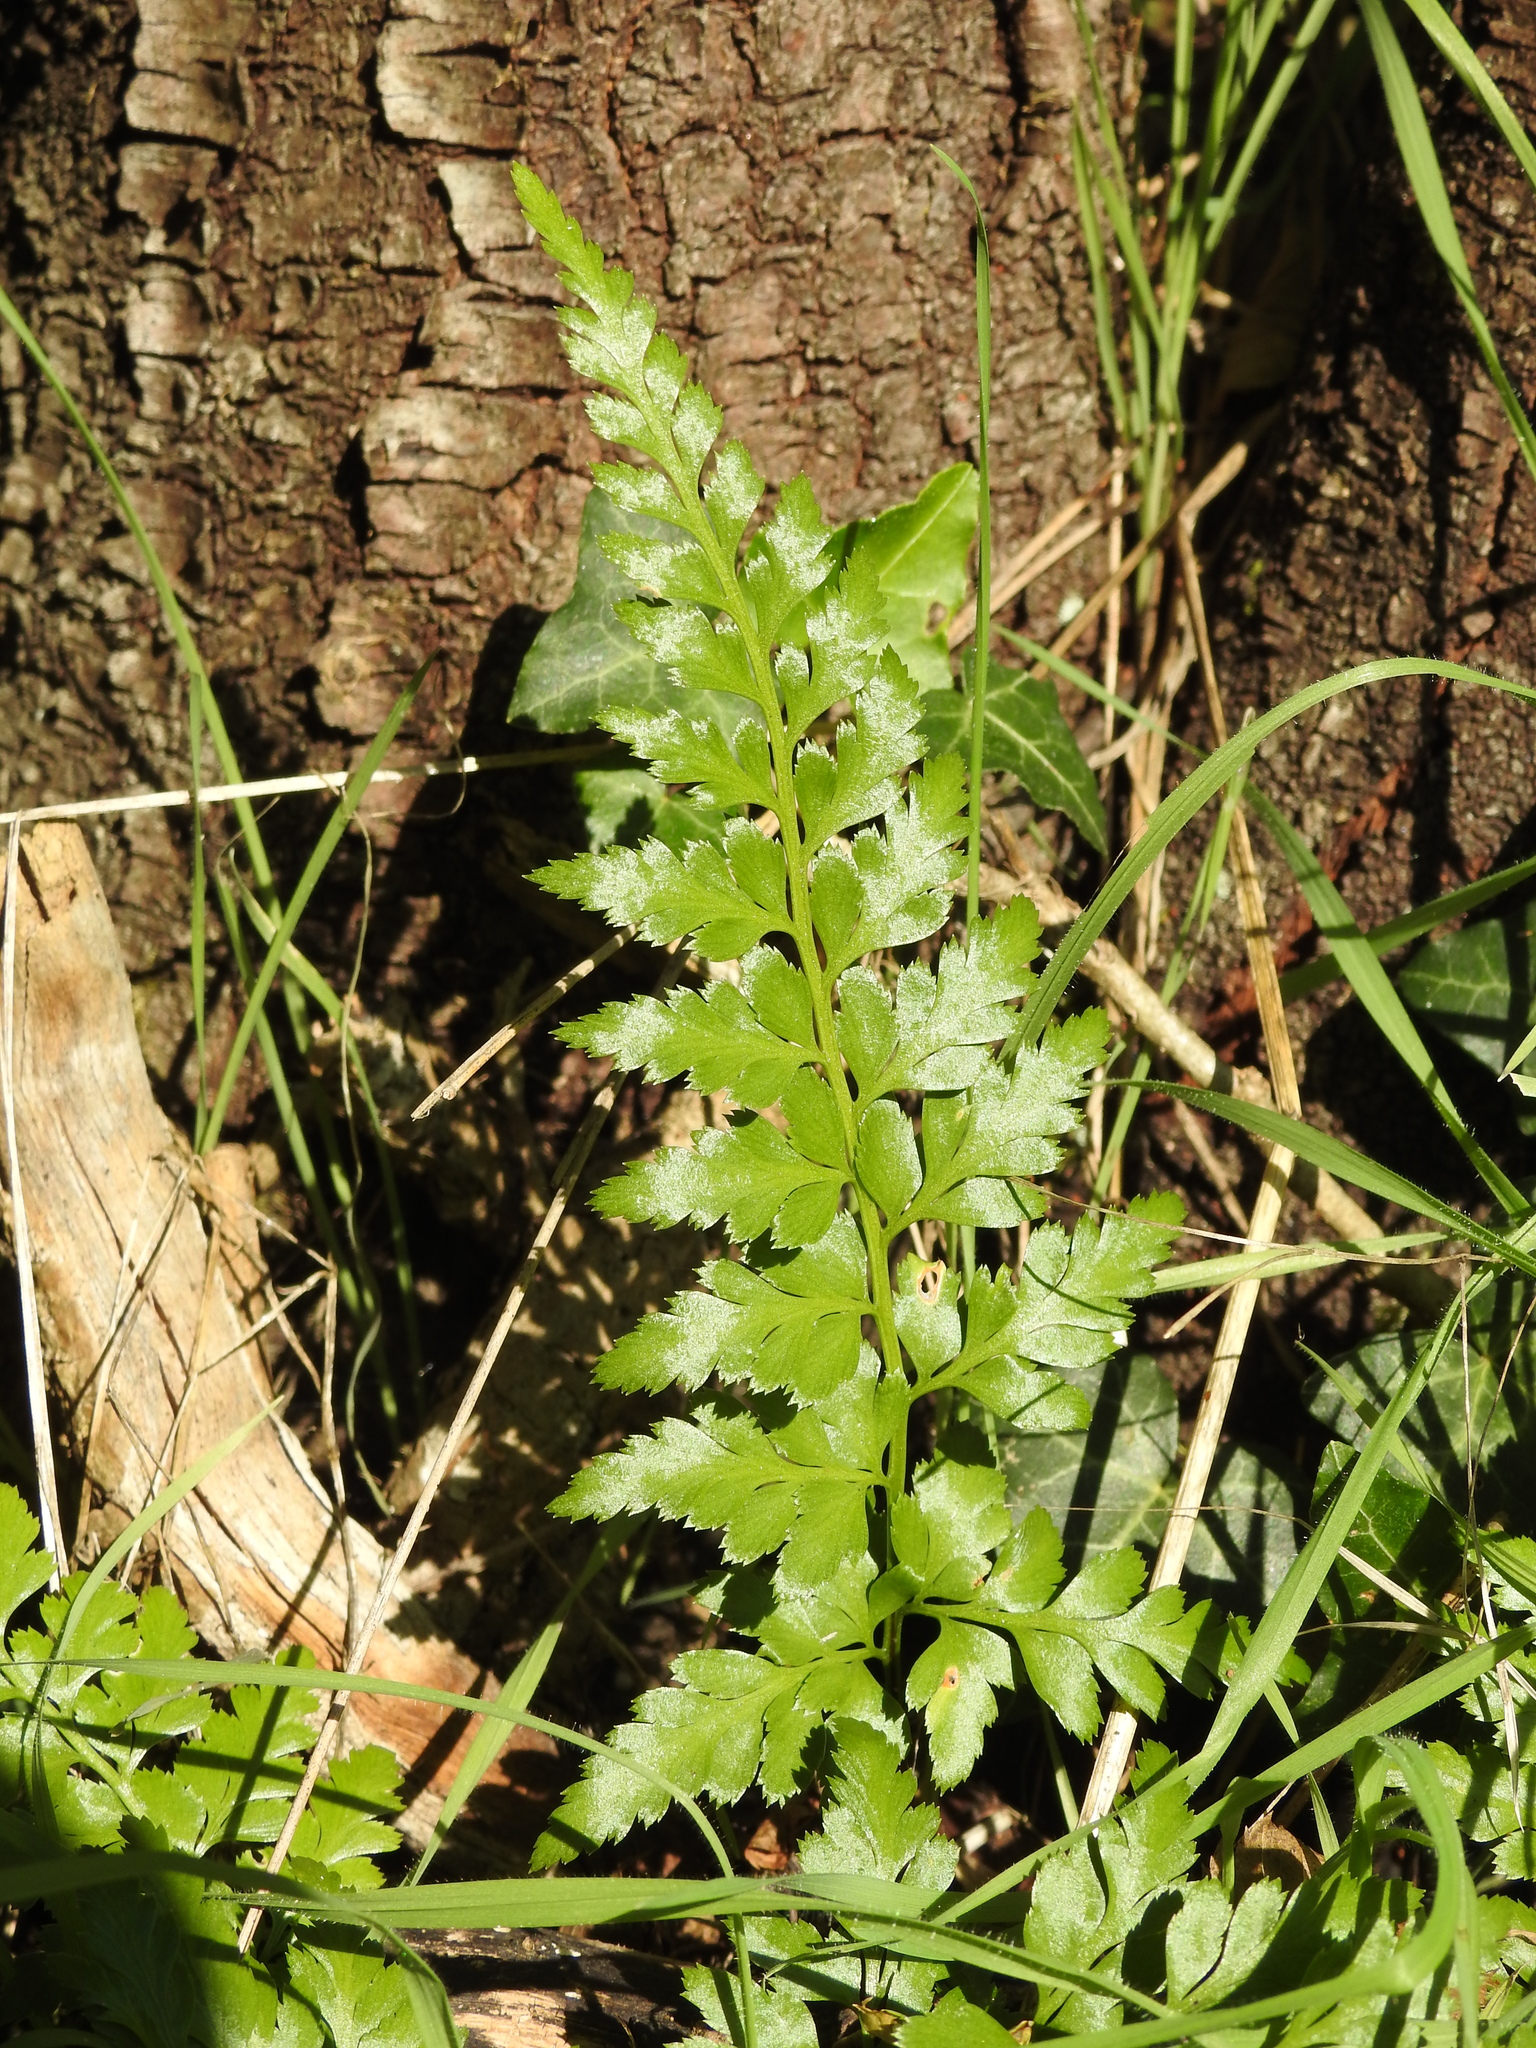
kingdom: Plantae
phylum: Tracheophyta
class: Polypodiopsida
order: Polypodiales
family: Aspleniaceae
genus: Asplenium
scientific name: Asplenium adiantum-nigrum
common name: Black spleenwort
